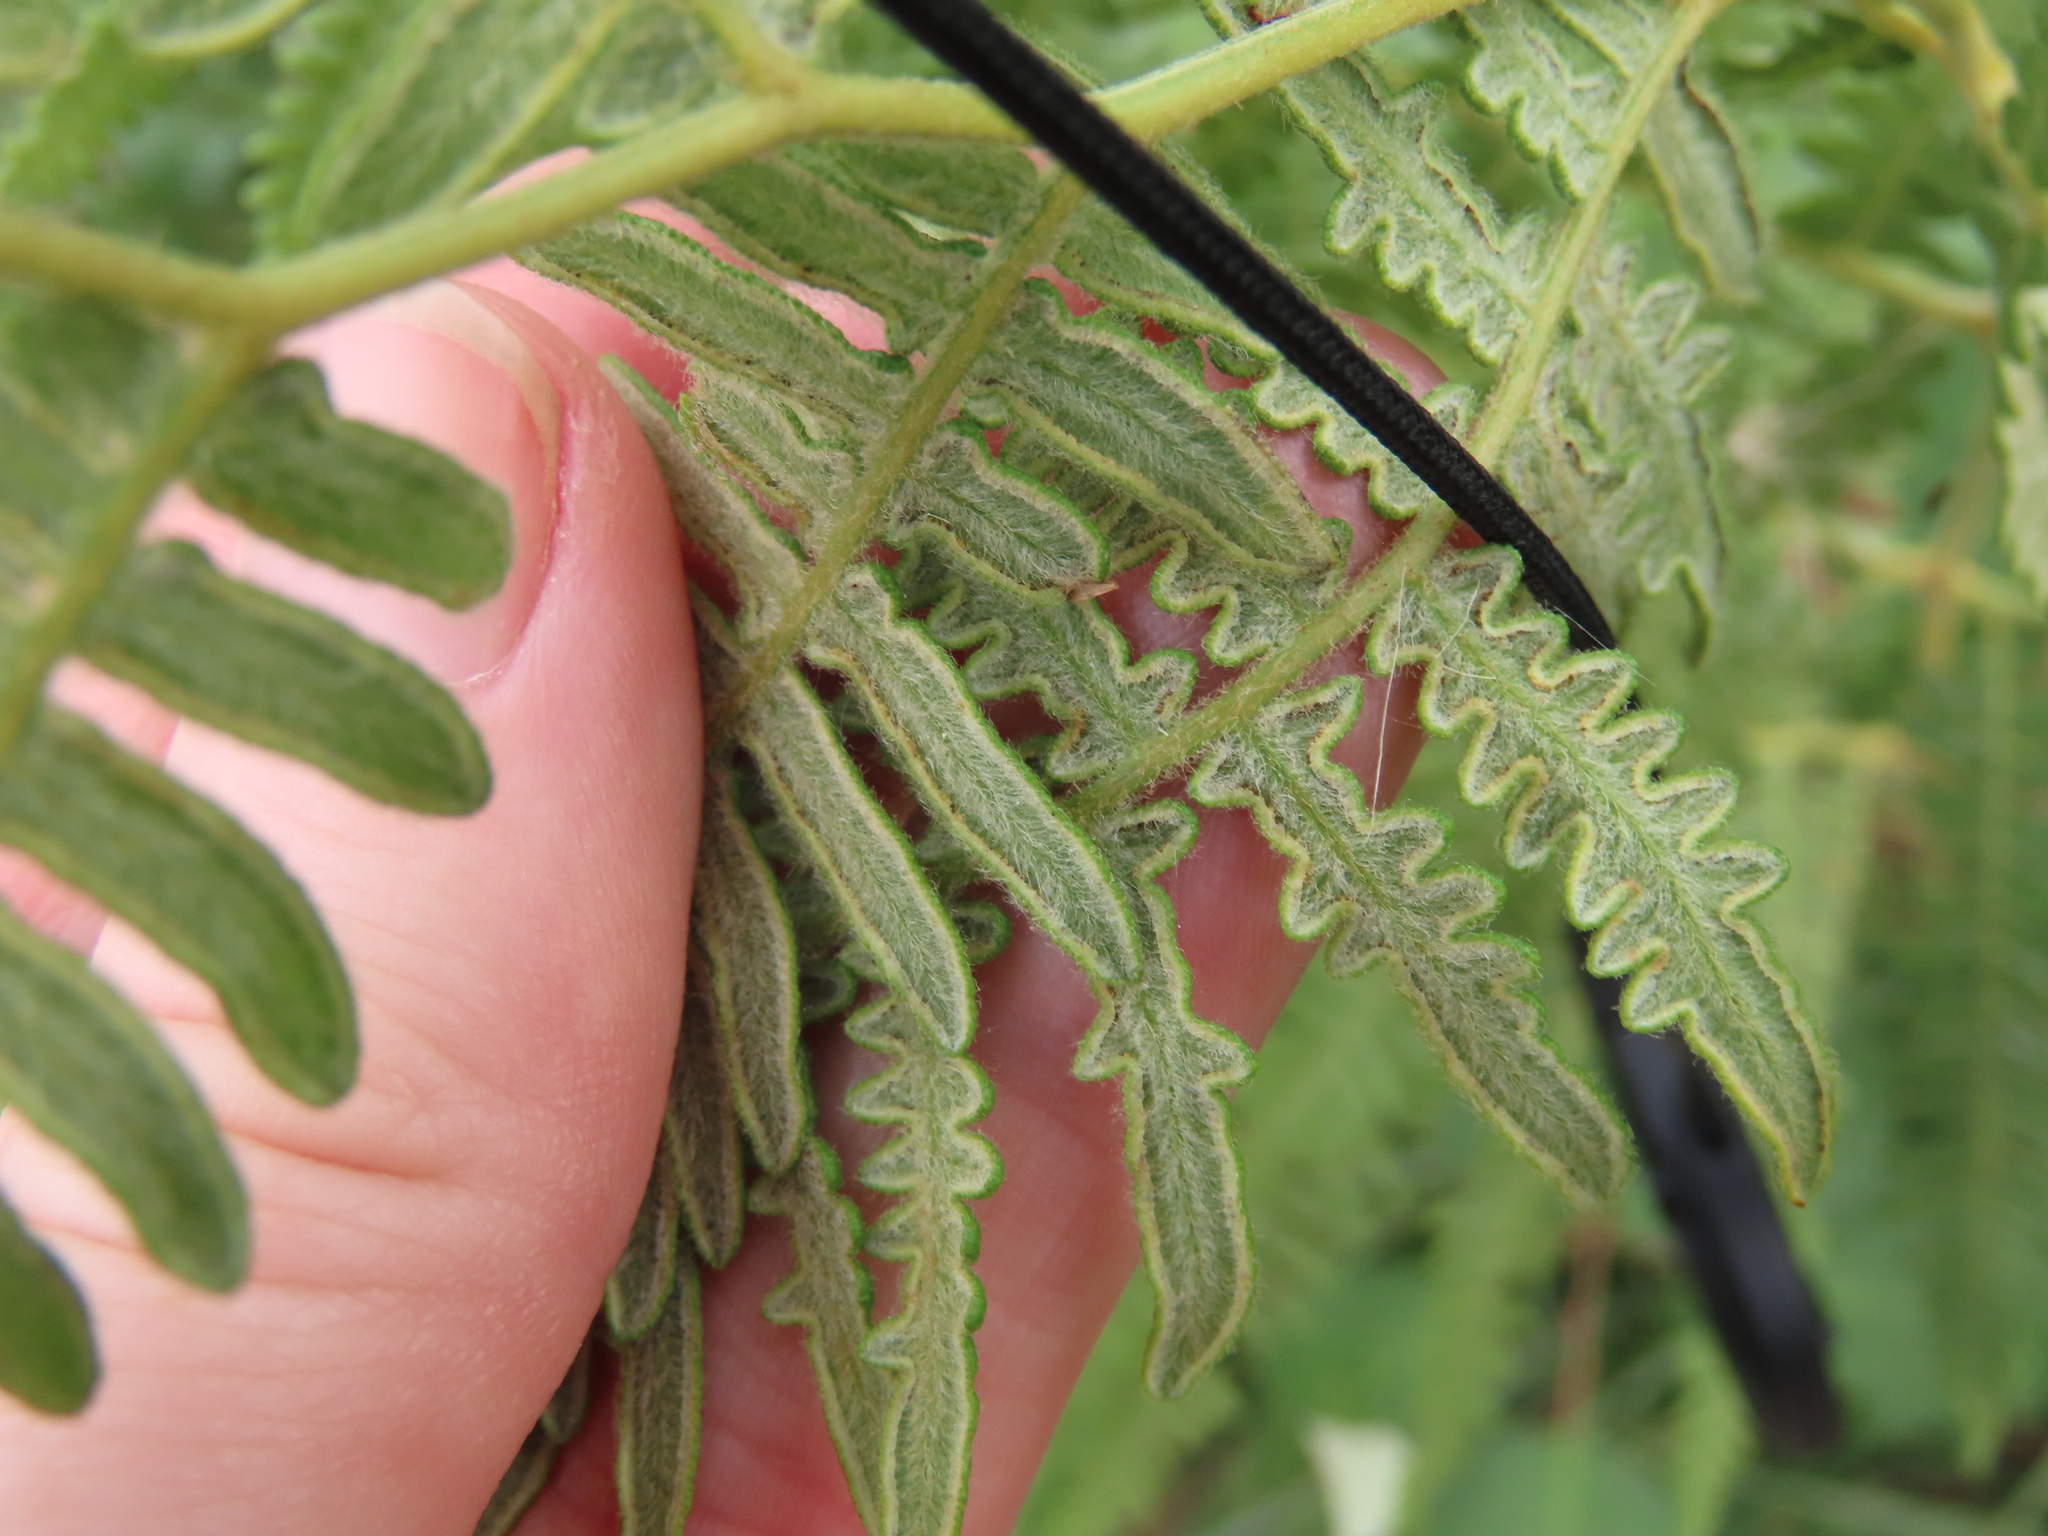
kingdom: Plantae
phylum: Tracheophyta
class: Polypodiopsida
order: Polypodiales
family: Dennstaedtiaceae
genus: Pteridium
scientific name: Pteridium aquilinum
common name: Bracken
